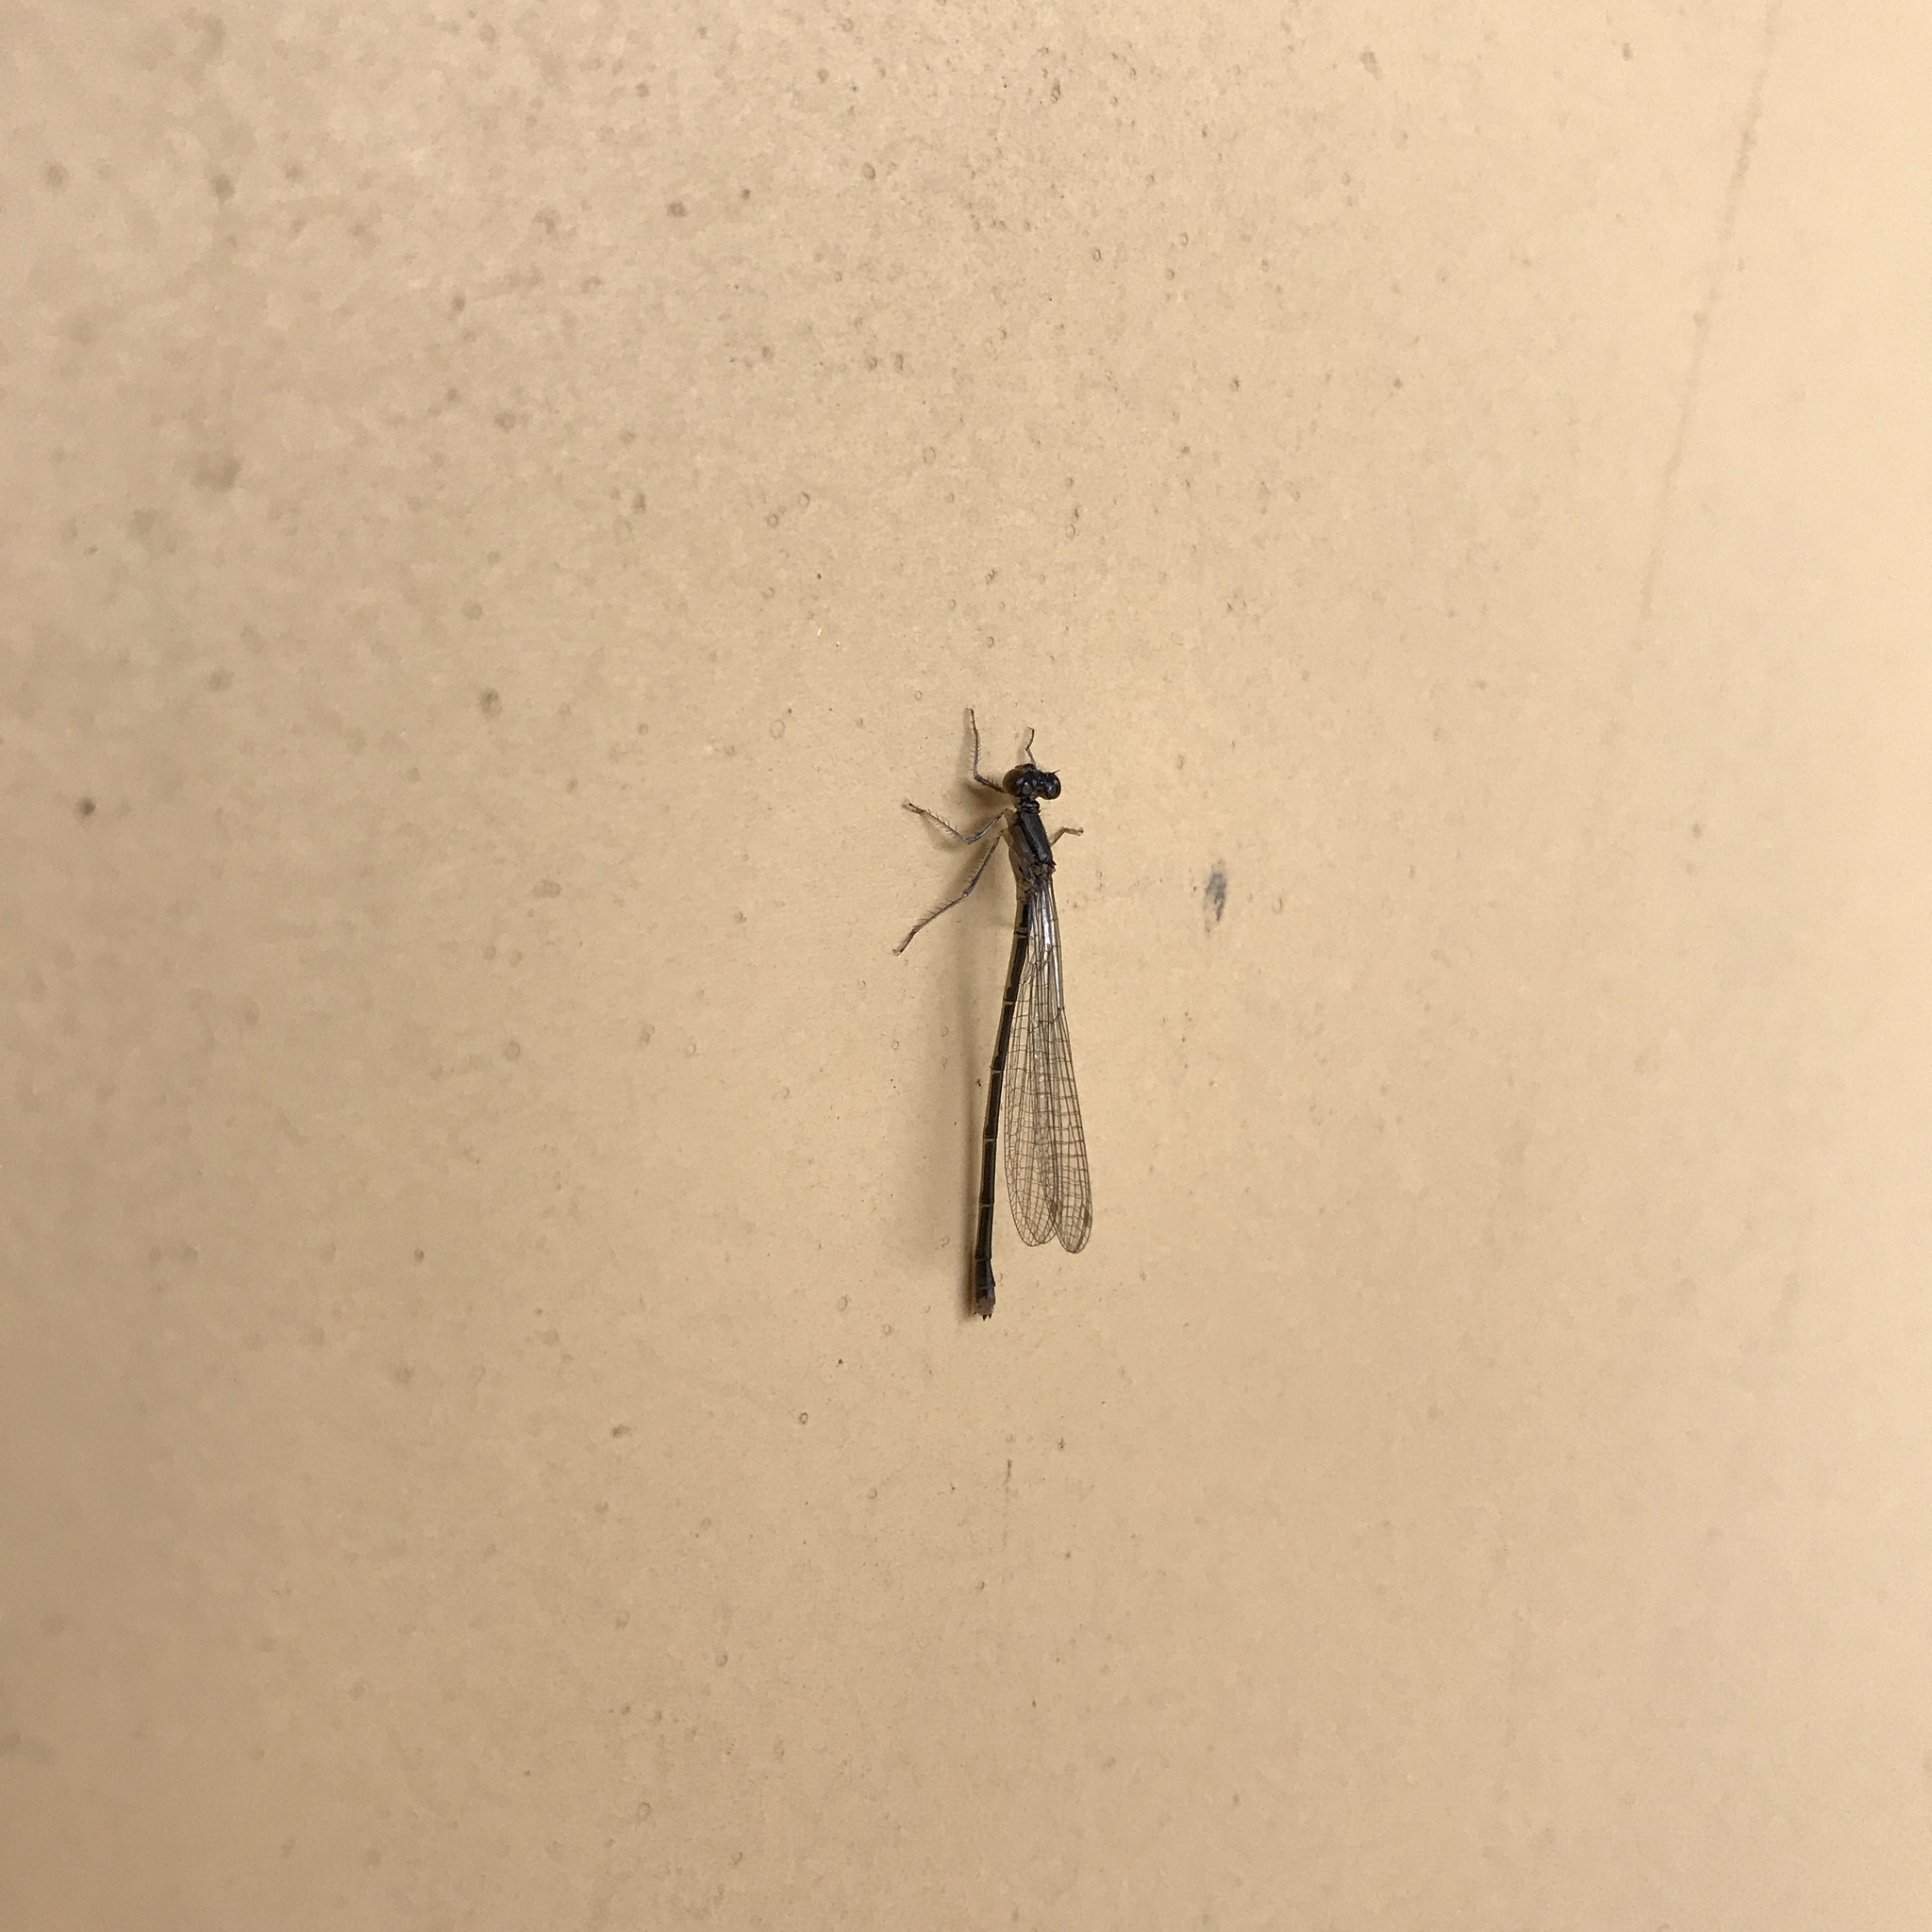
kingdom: Animalia
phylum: Arthropoda
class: Insecta
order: Odonata
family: Coenagrionidae
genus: Cyanallagma
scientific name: Cyanallagma interruptum
